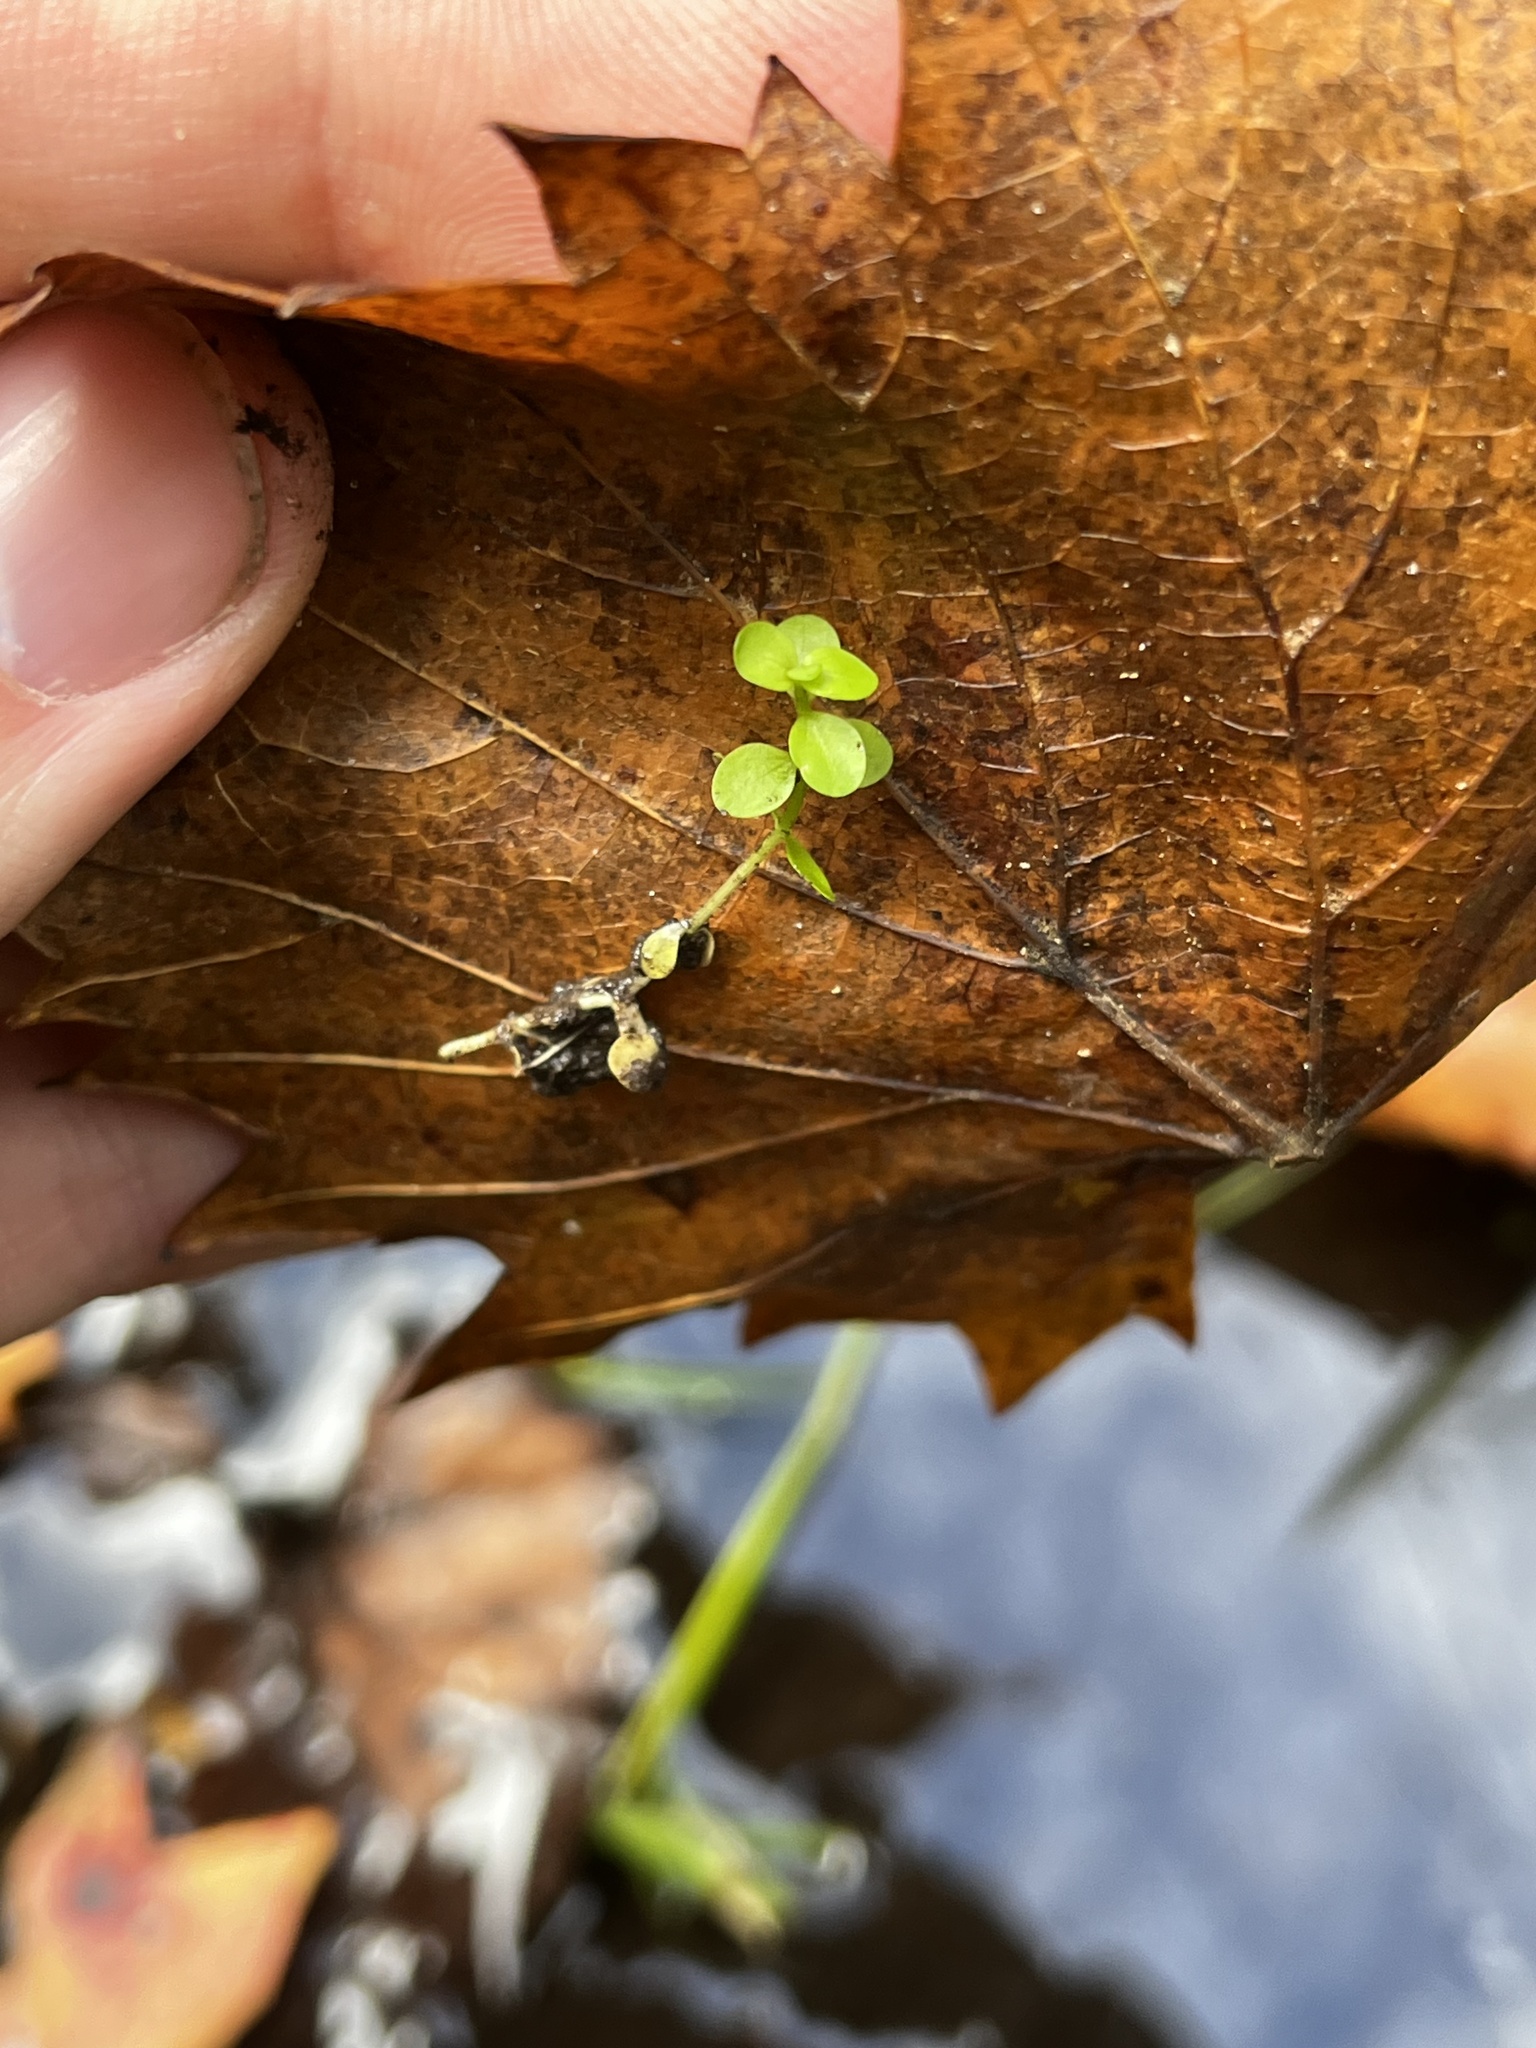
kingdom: Plantae
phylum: Tracheophyta
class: Magnoliopsida
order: Lamiales
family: Linderniaceae
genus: Micranthemum
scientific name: Micranthemum umbrosum
